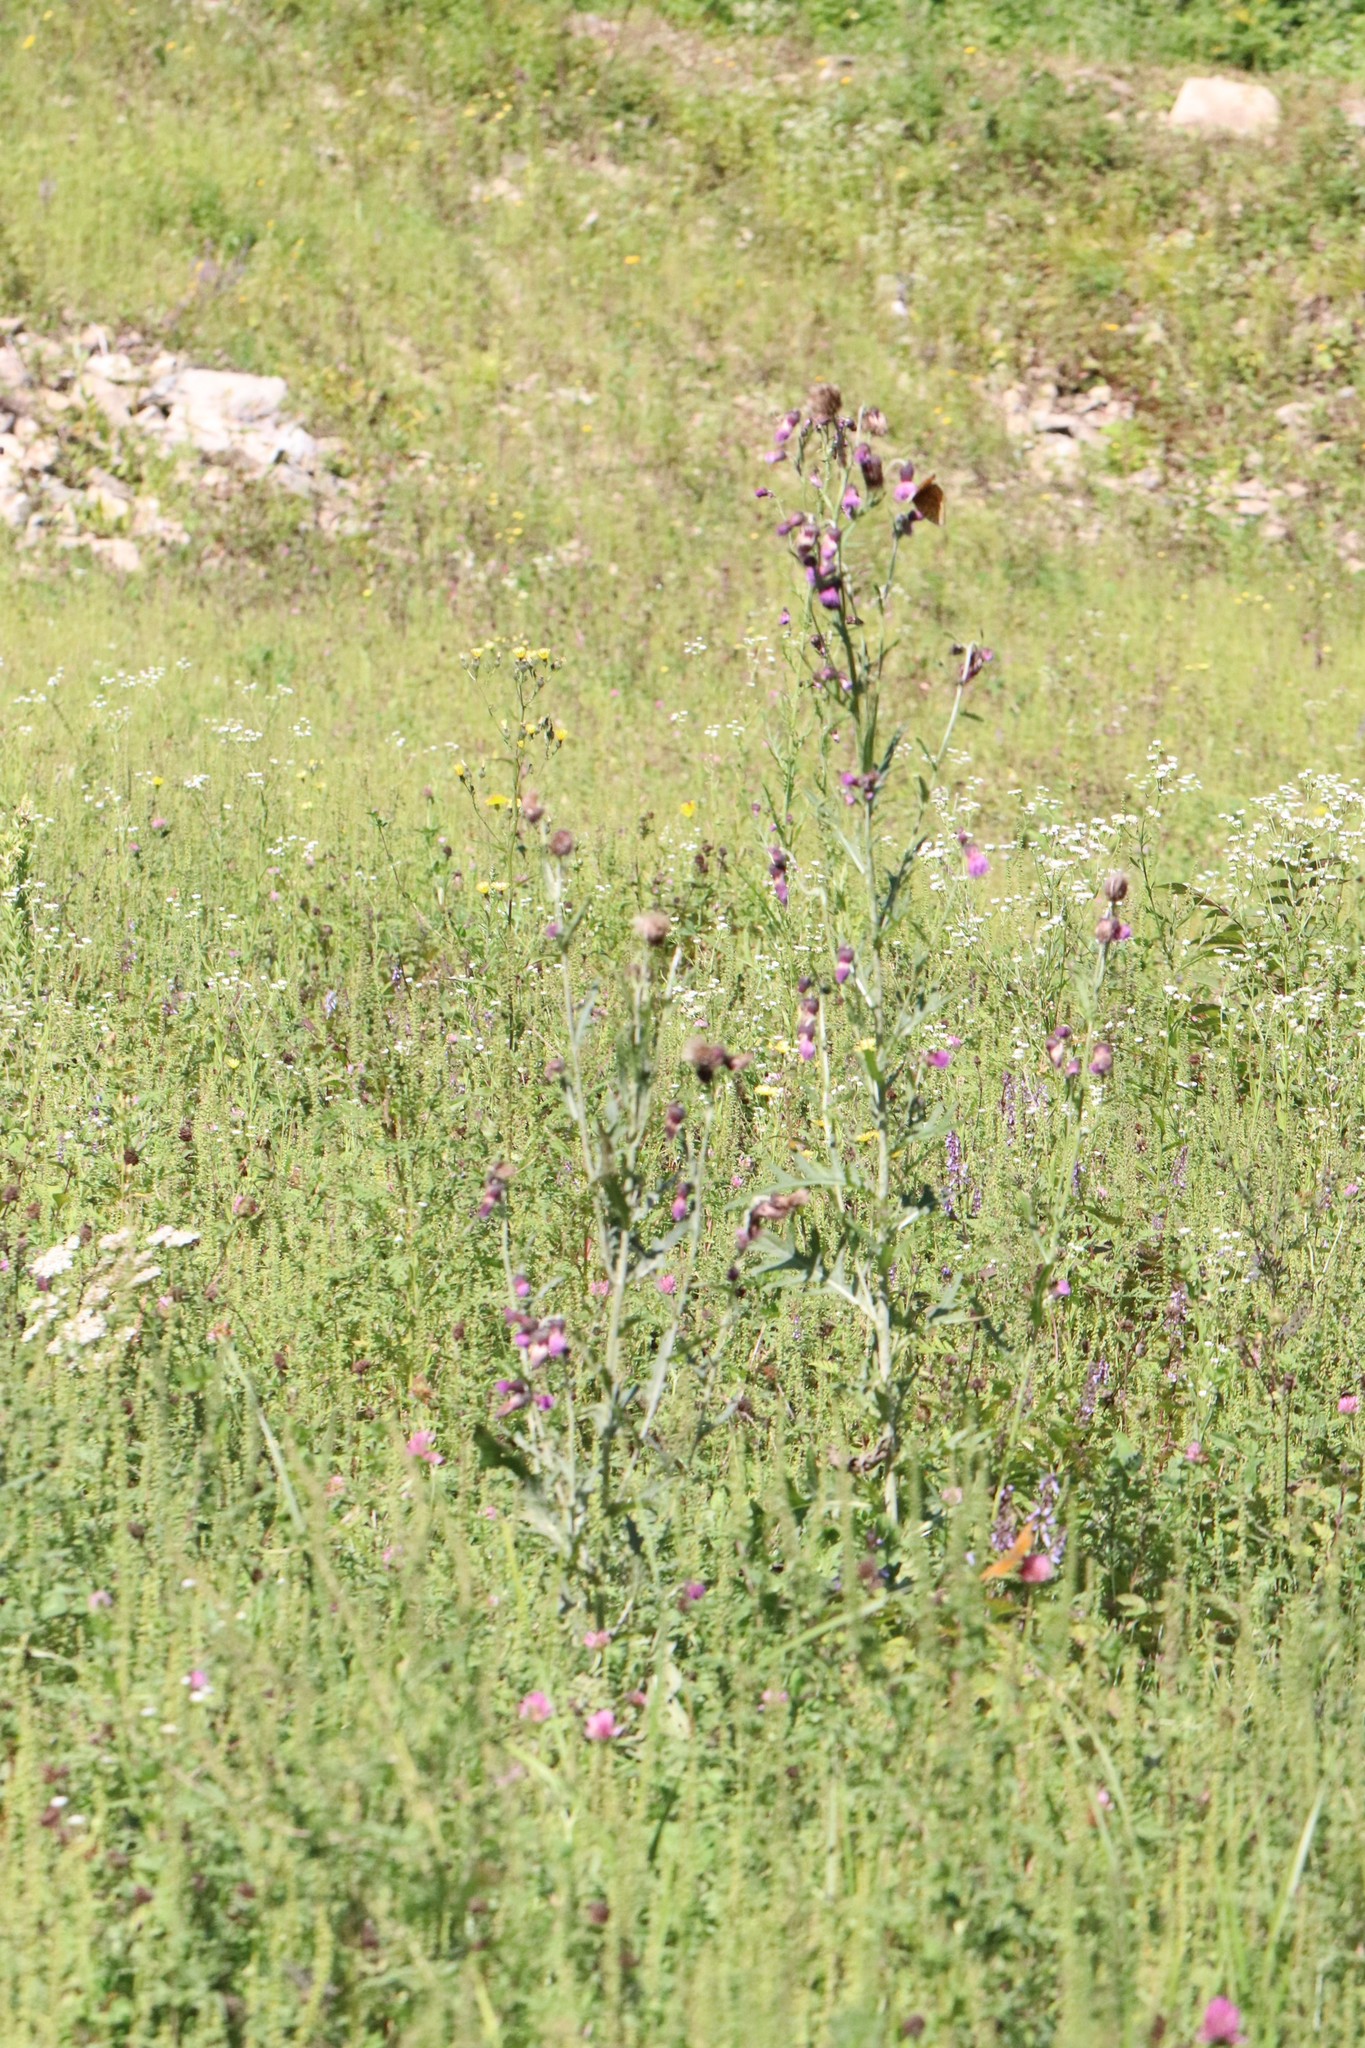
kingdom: Plantae
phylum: Tracheophyta
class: Magnoliopsida
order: Asterales
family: Asteraceae
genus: Cirsium
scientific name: Cirsium pendulum
